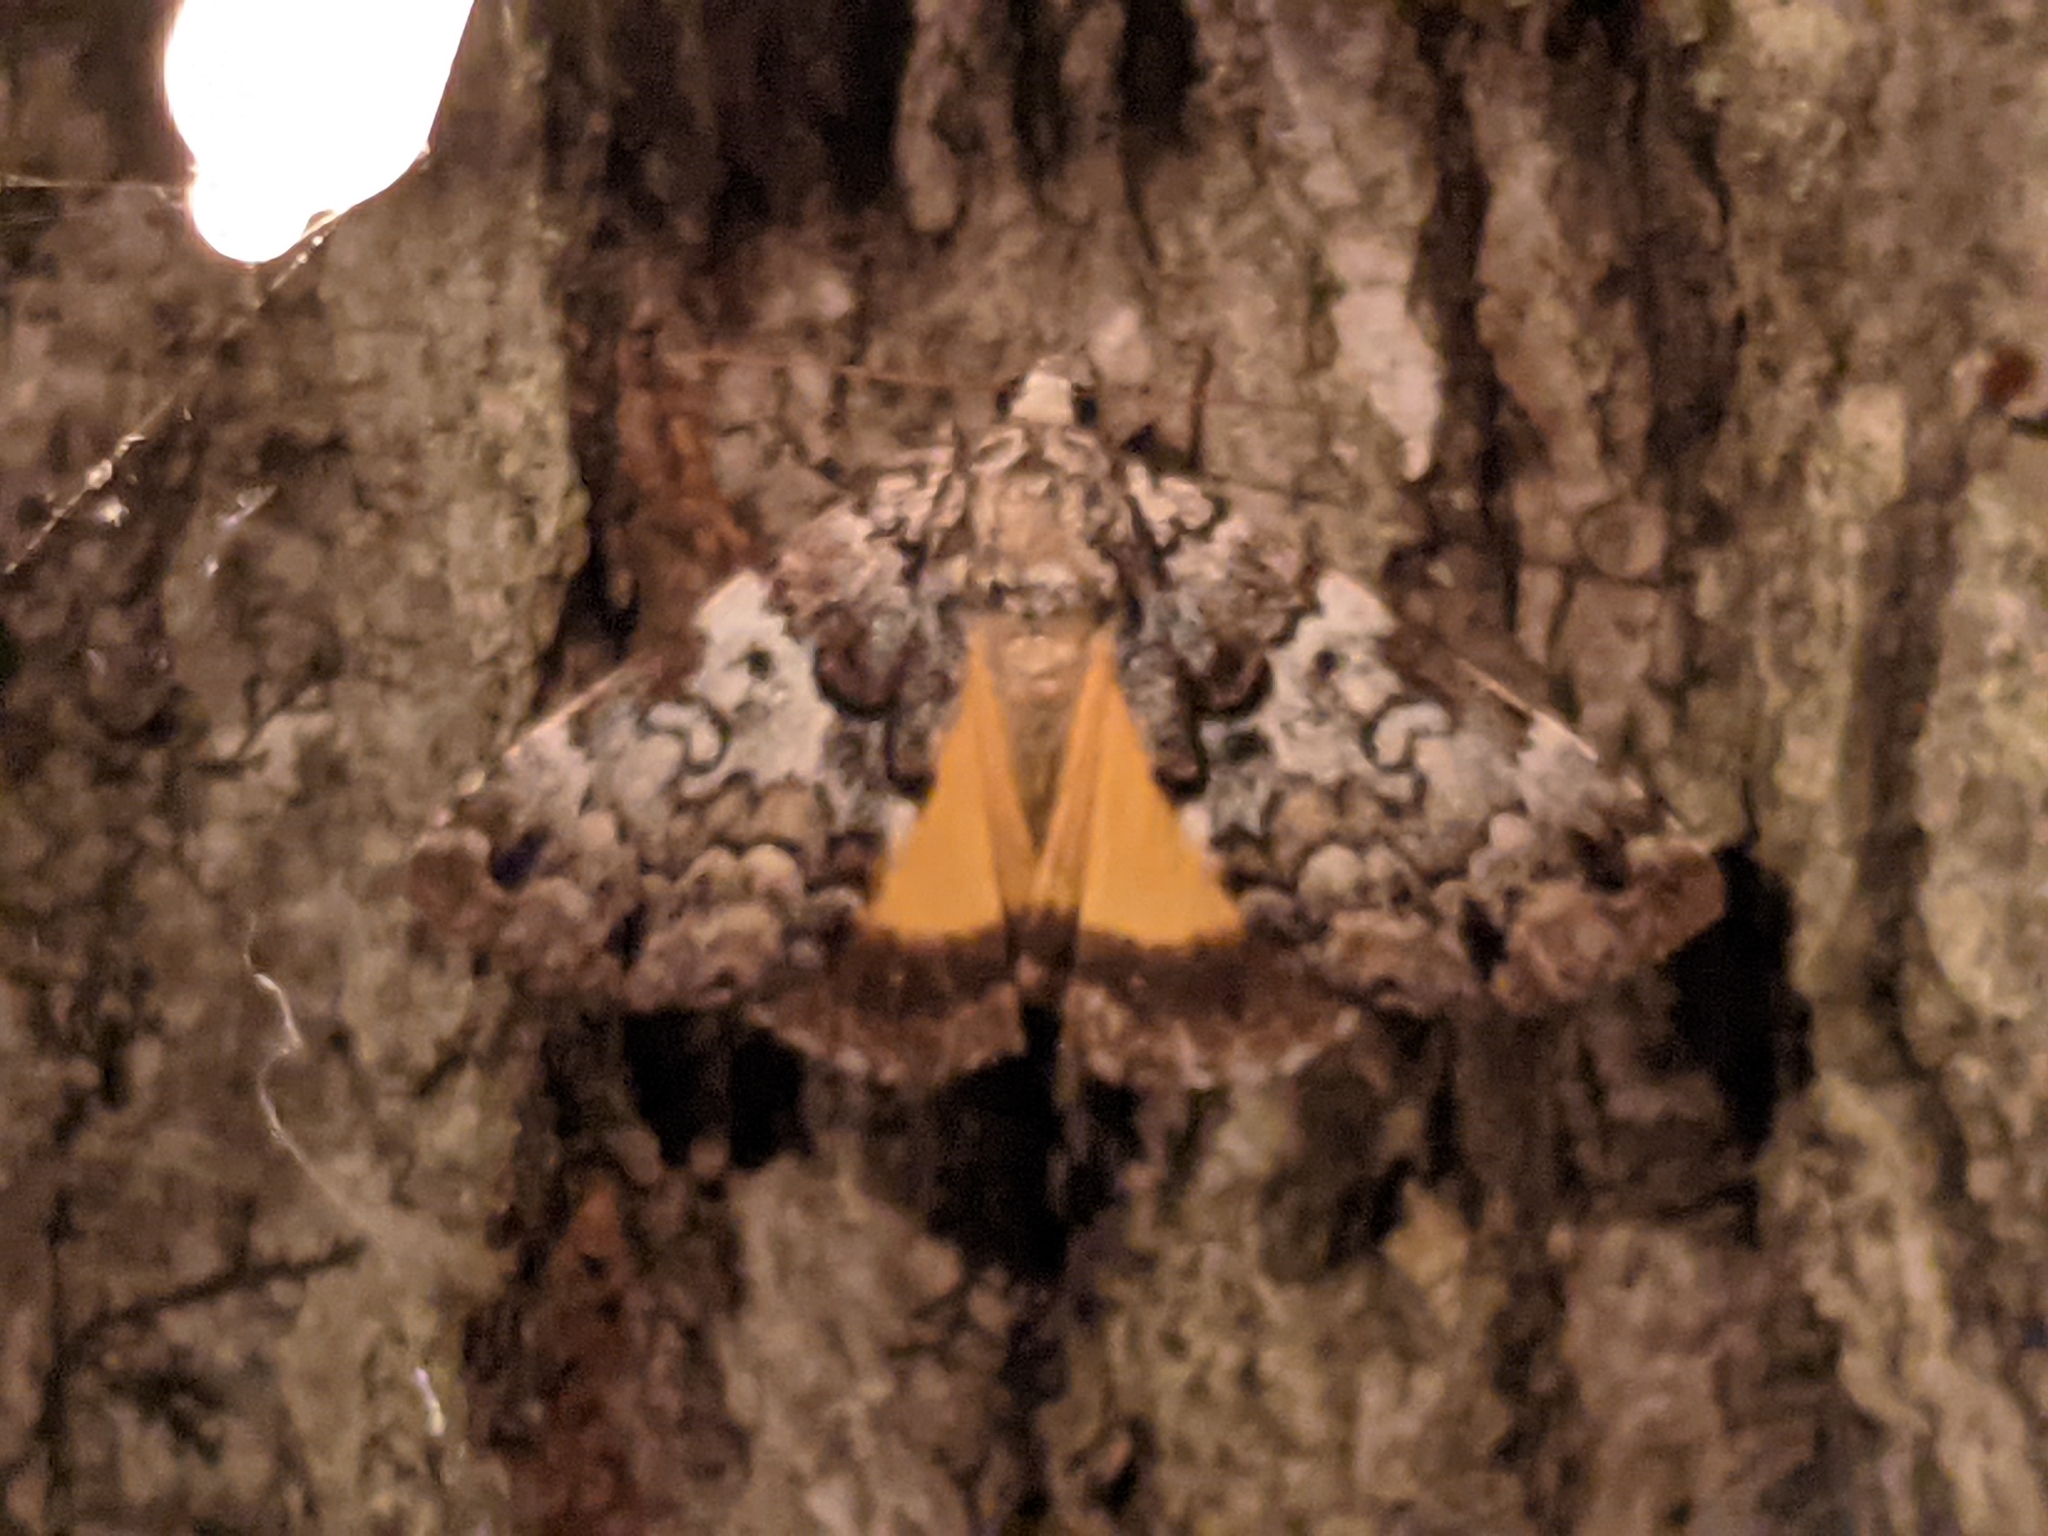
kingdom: Animalia
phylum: Arthropoda
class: Insecta
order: Lepidoptera
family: Erebidae
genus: Allotria
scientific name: Allotria elonympha
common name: False underwing
